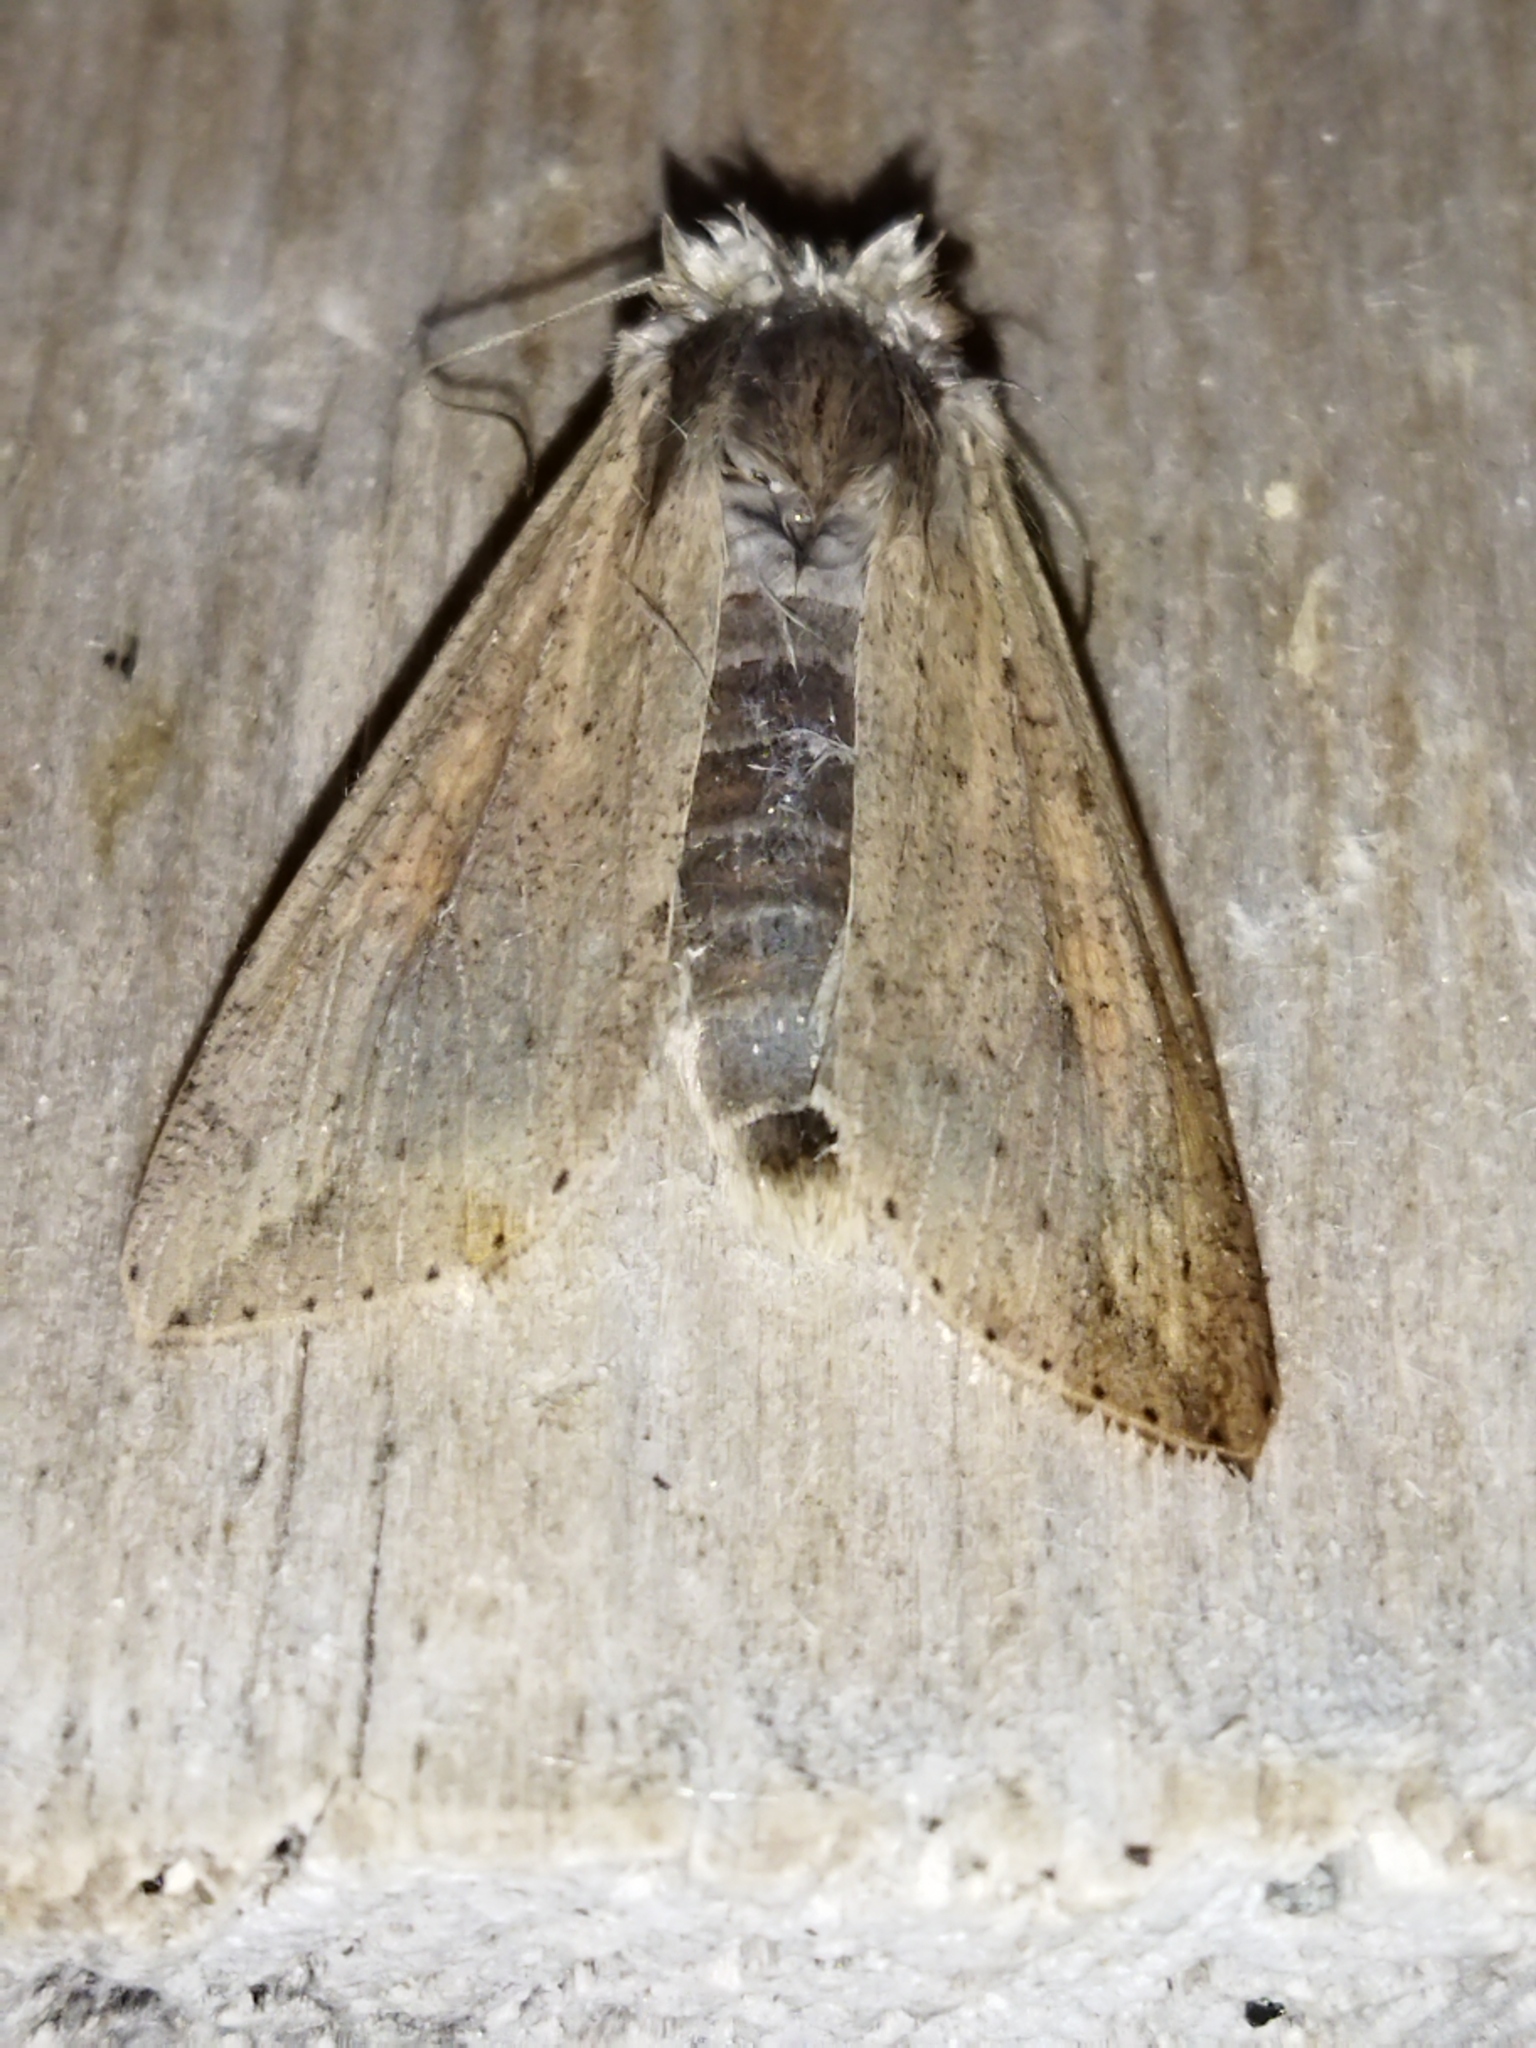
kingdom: Animalia
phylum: Arthropoda
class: Insecta
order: Lepidoptera
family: Noctuidae
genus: Mythimna
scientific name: Mythimna unipuncta
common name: White-speck
